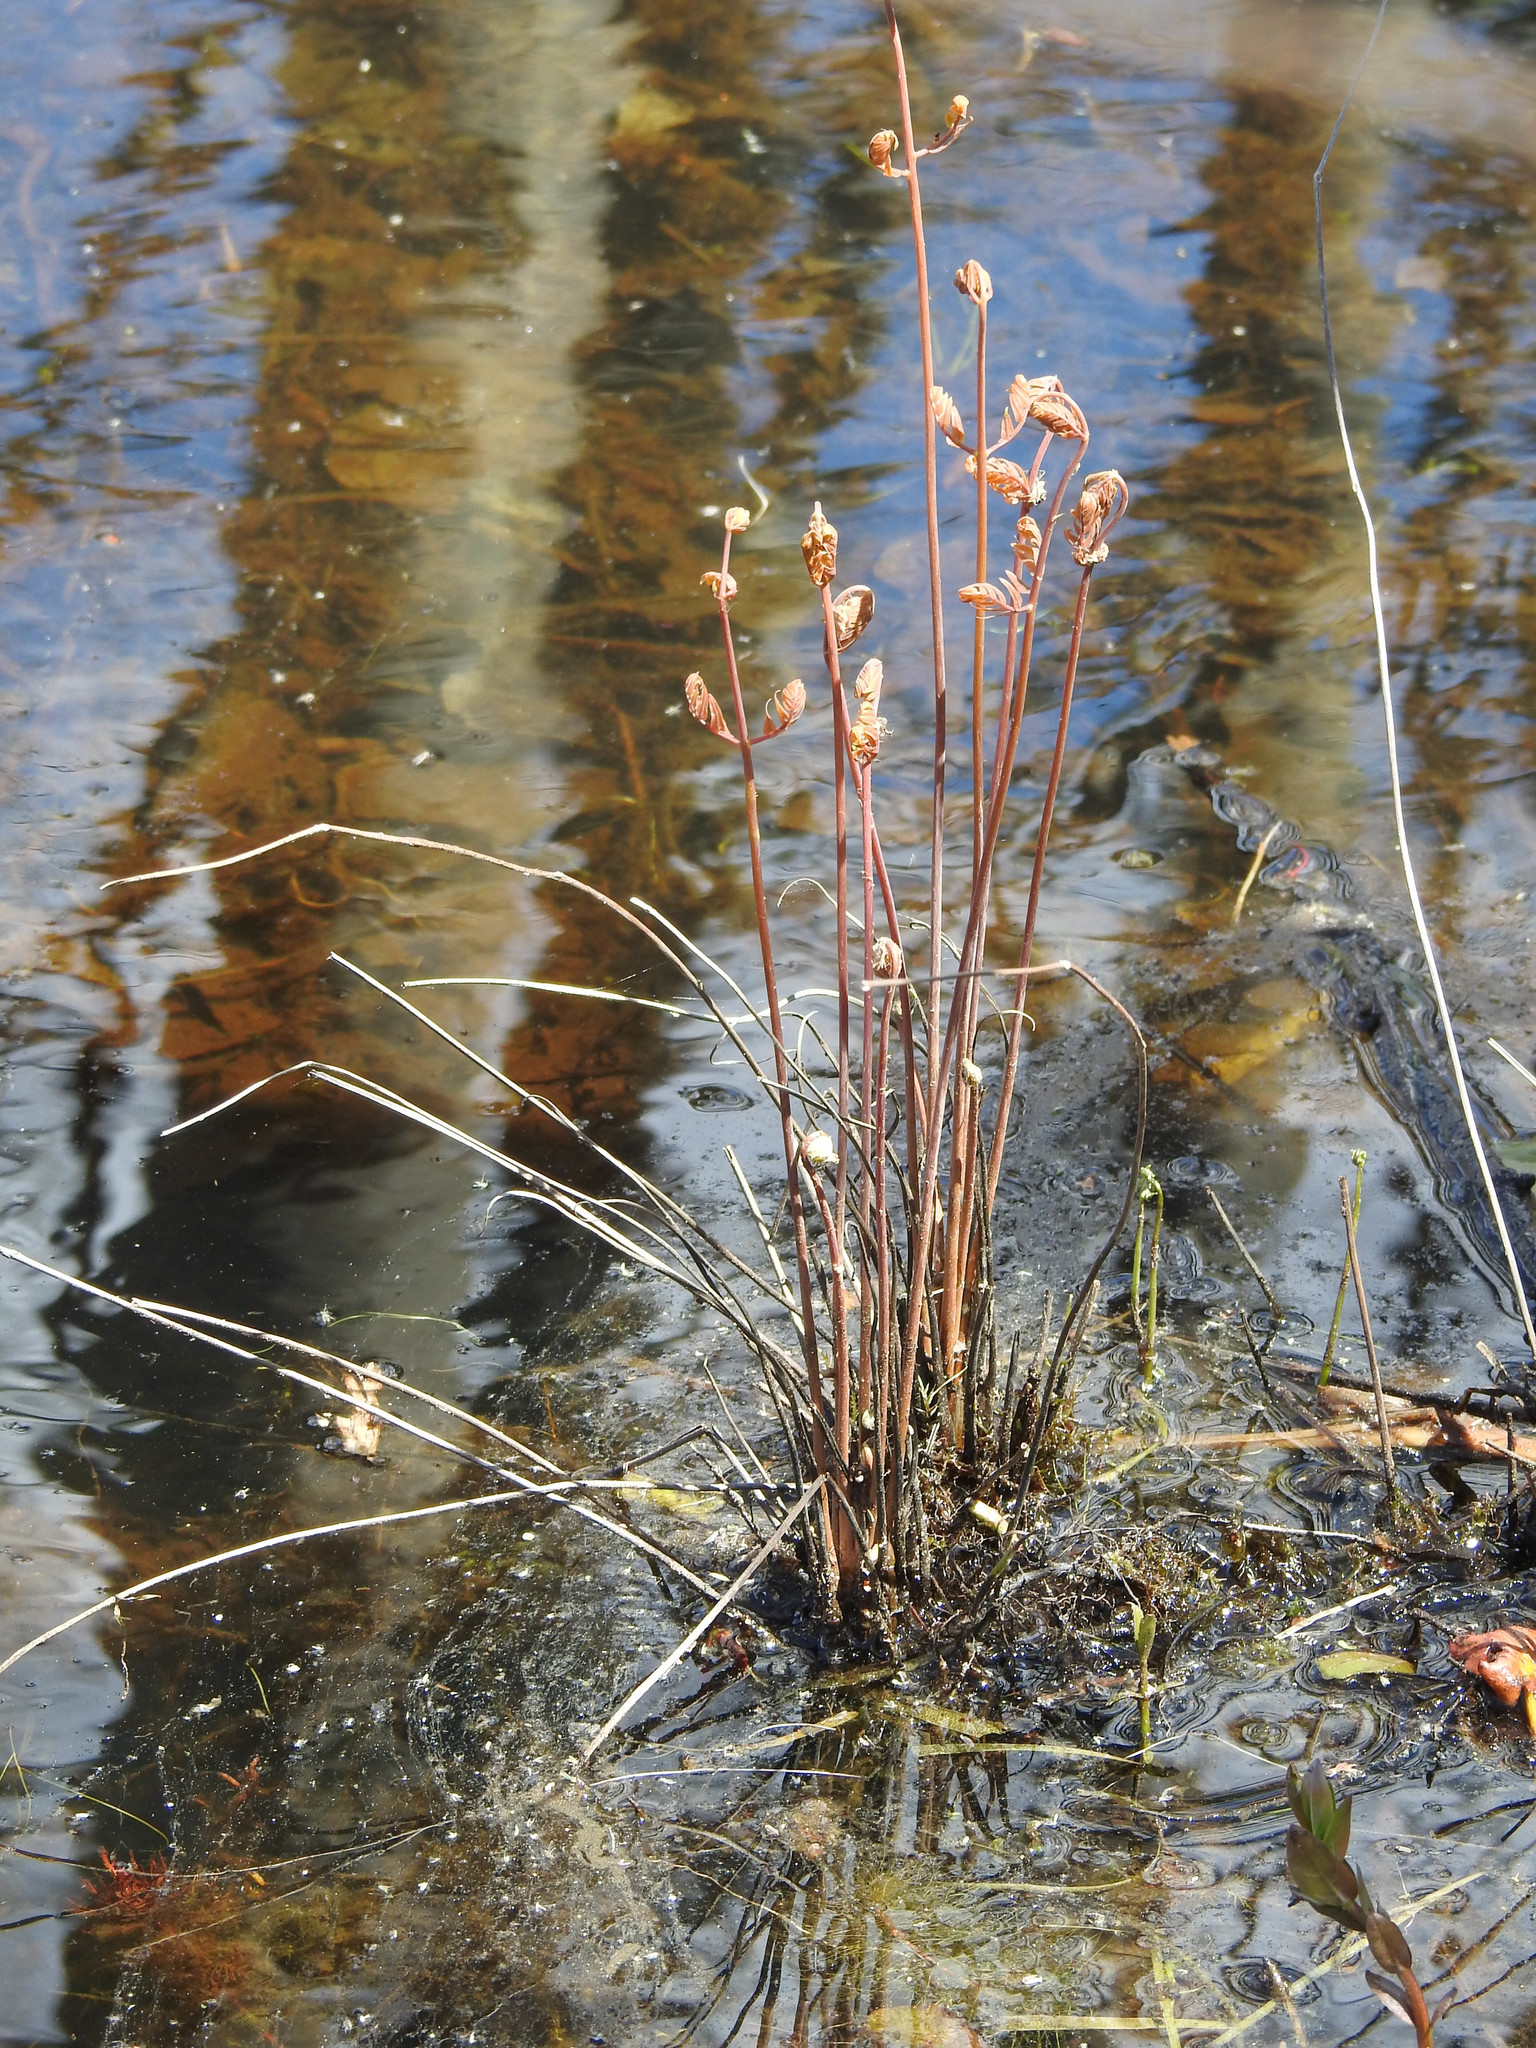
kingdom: Plantae
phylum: Tracheophyta
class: Polypodiopsida
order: Osmundales
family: Osmundaceae
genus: Osmunda
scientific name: Osmunda spectabilis
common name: American royal fern
